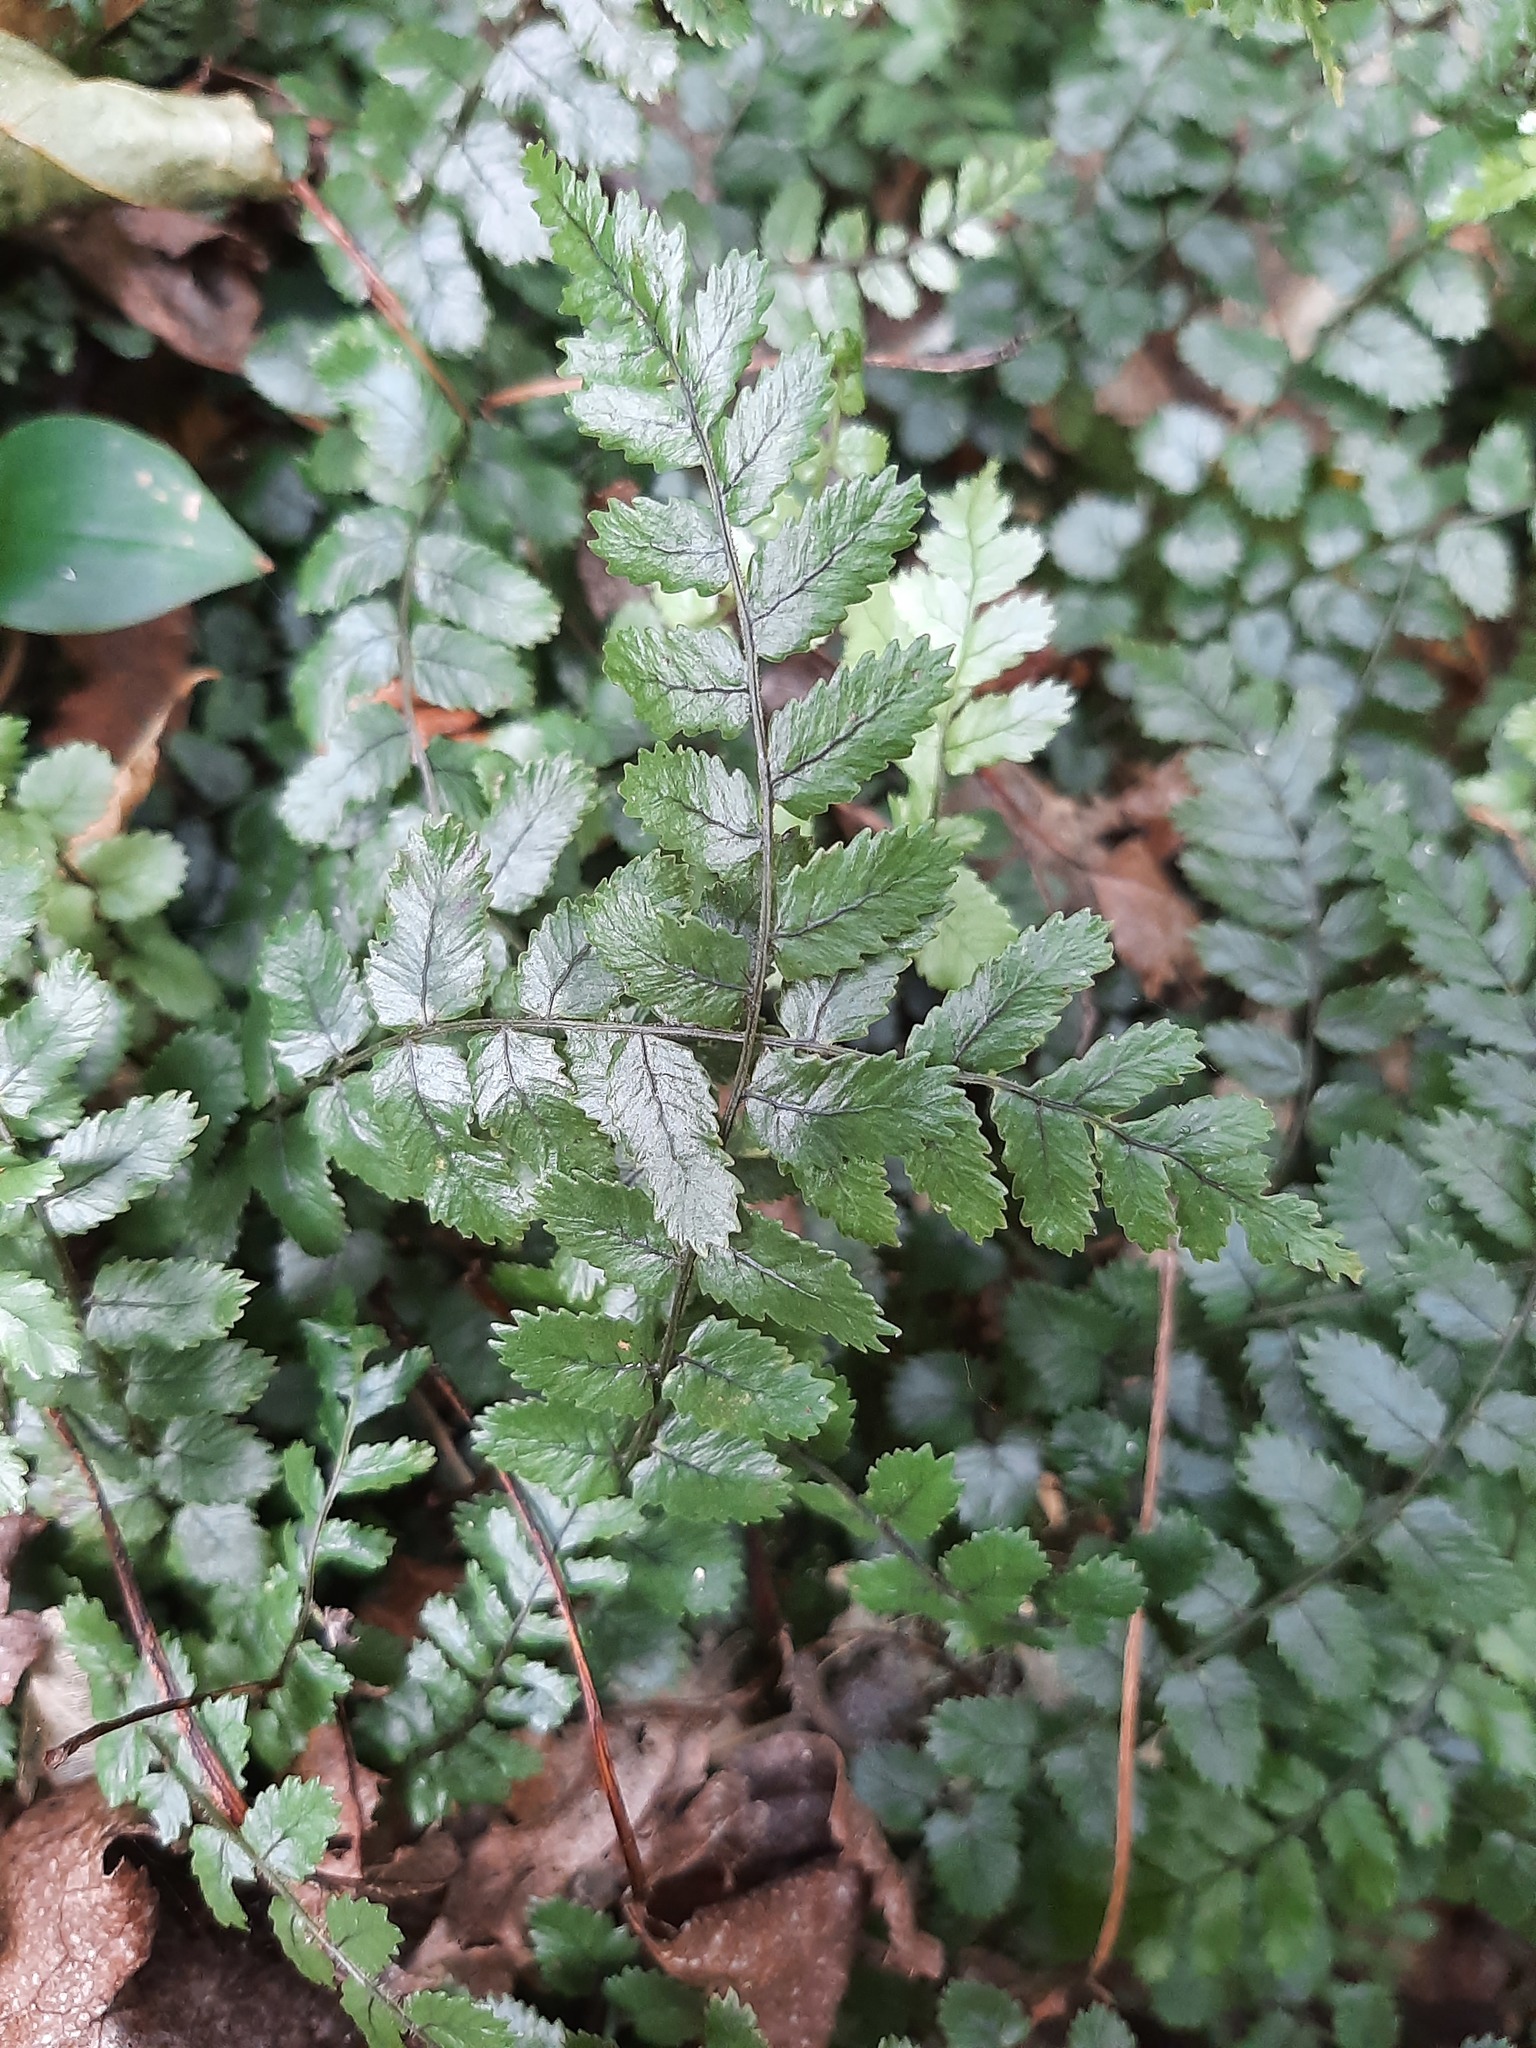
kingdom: Plantae
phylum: Tracheophyta
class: Polypodiopsida
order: Polypodiales
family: Blechnaceae
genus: Icarus
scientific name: Icarus filiformis
